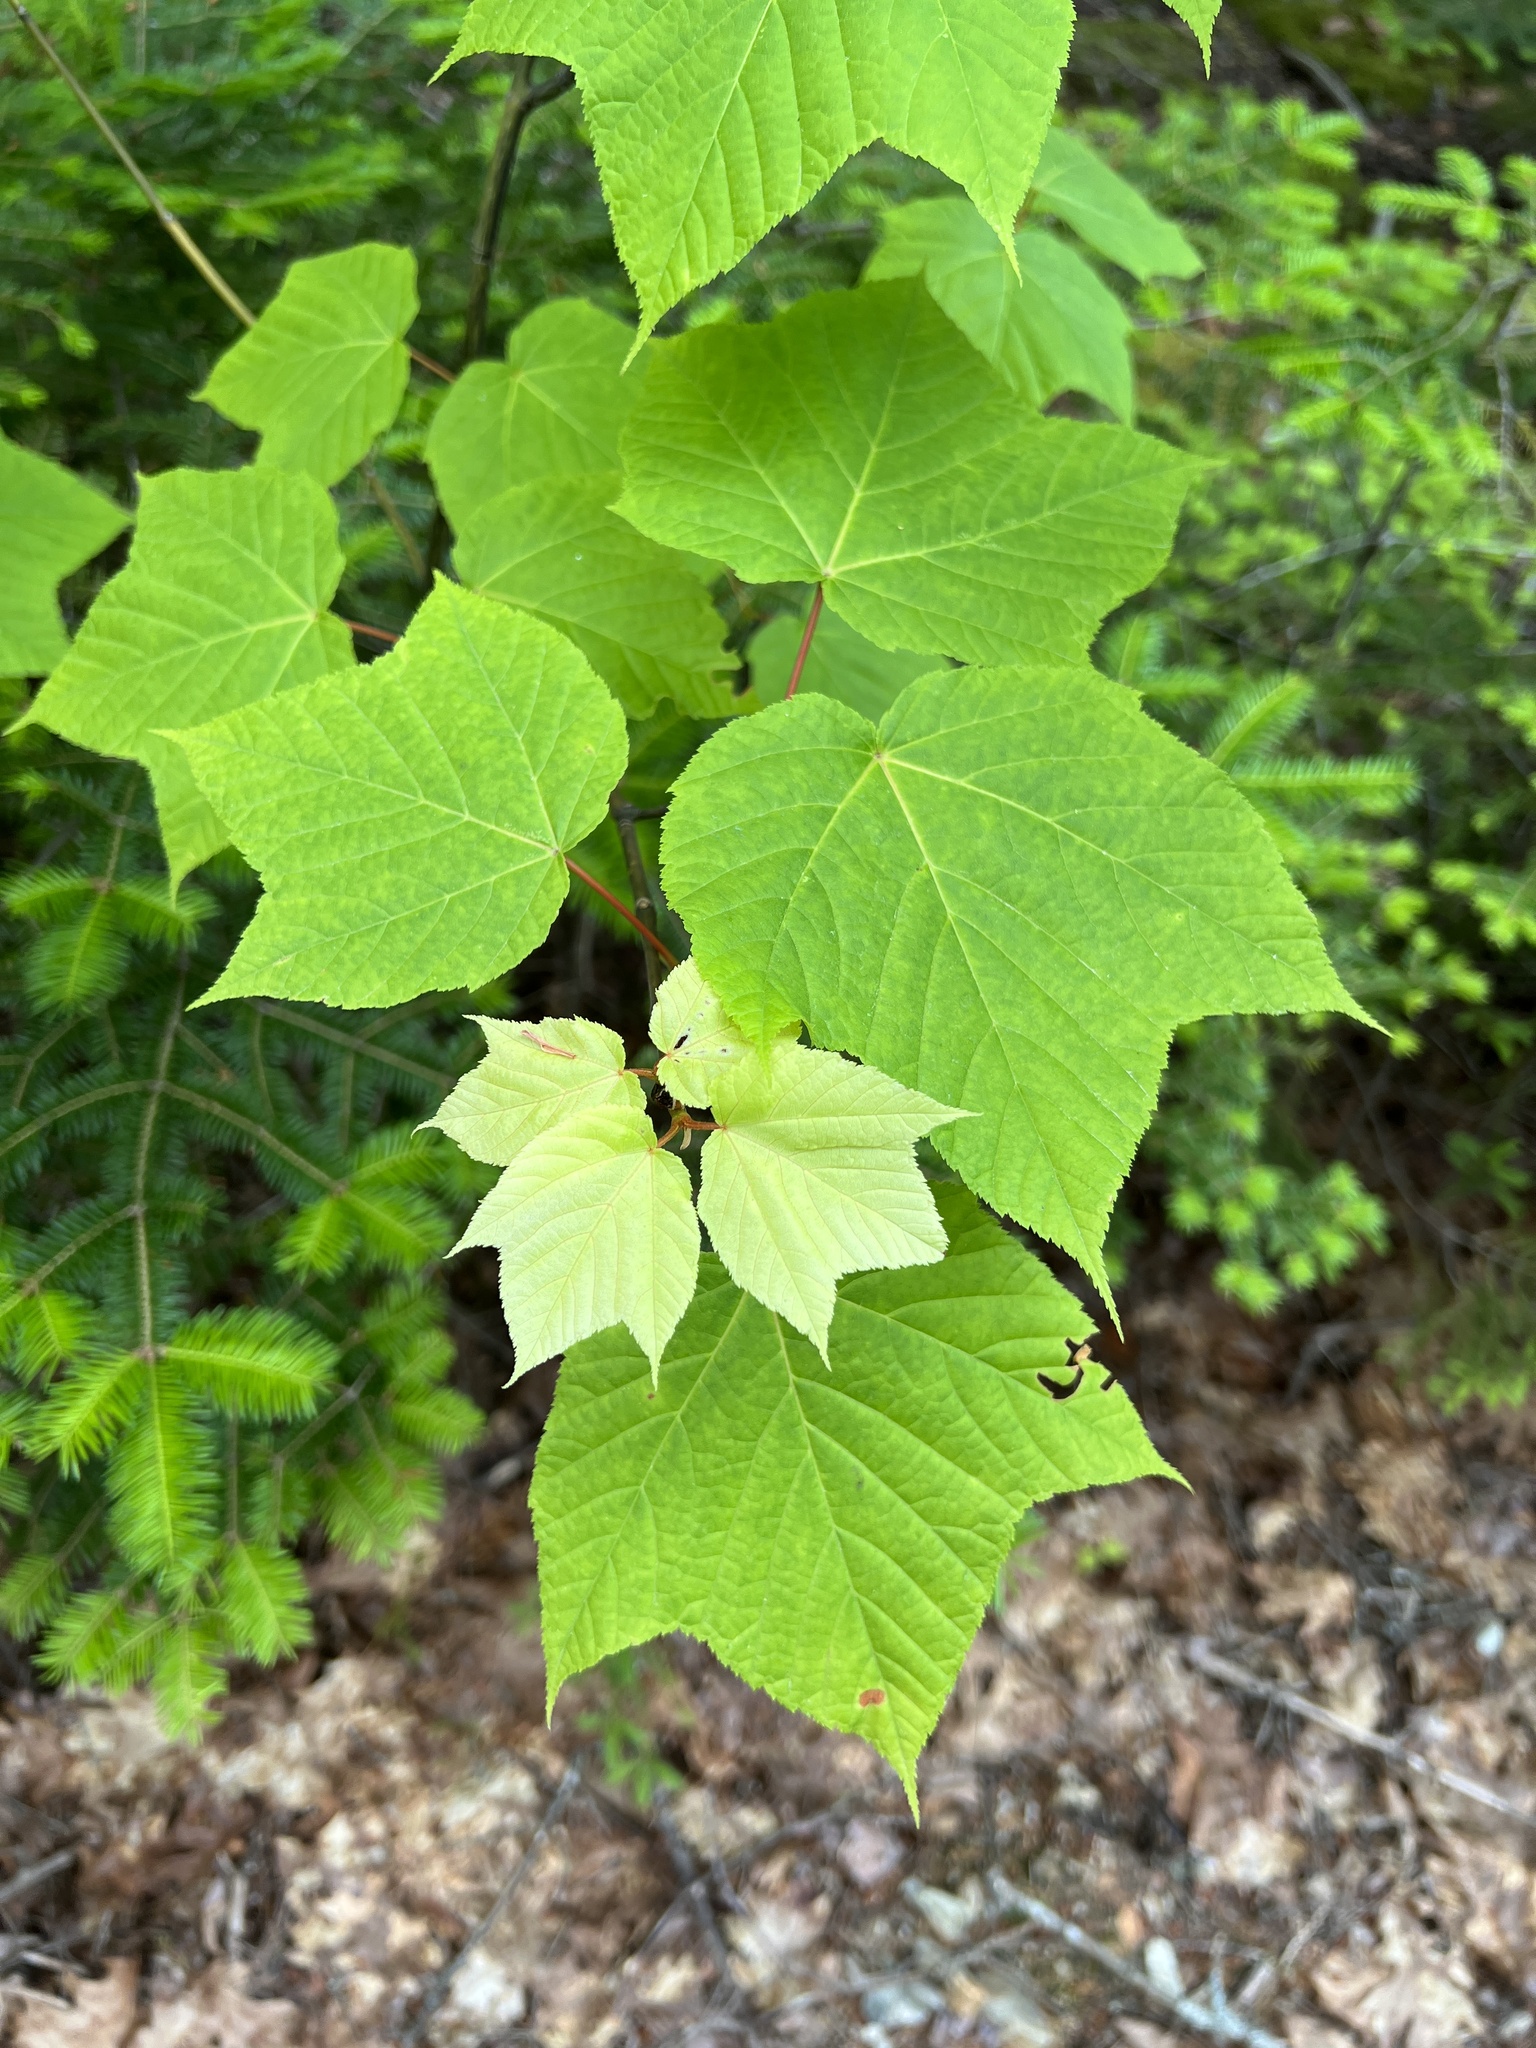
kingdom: Plantae
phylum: Tracheophyta
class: Magnoliopsida
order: Sapindales
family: Sapindaceae
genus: Acer
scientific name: Acer pensylvanicum
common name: Moosewood
